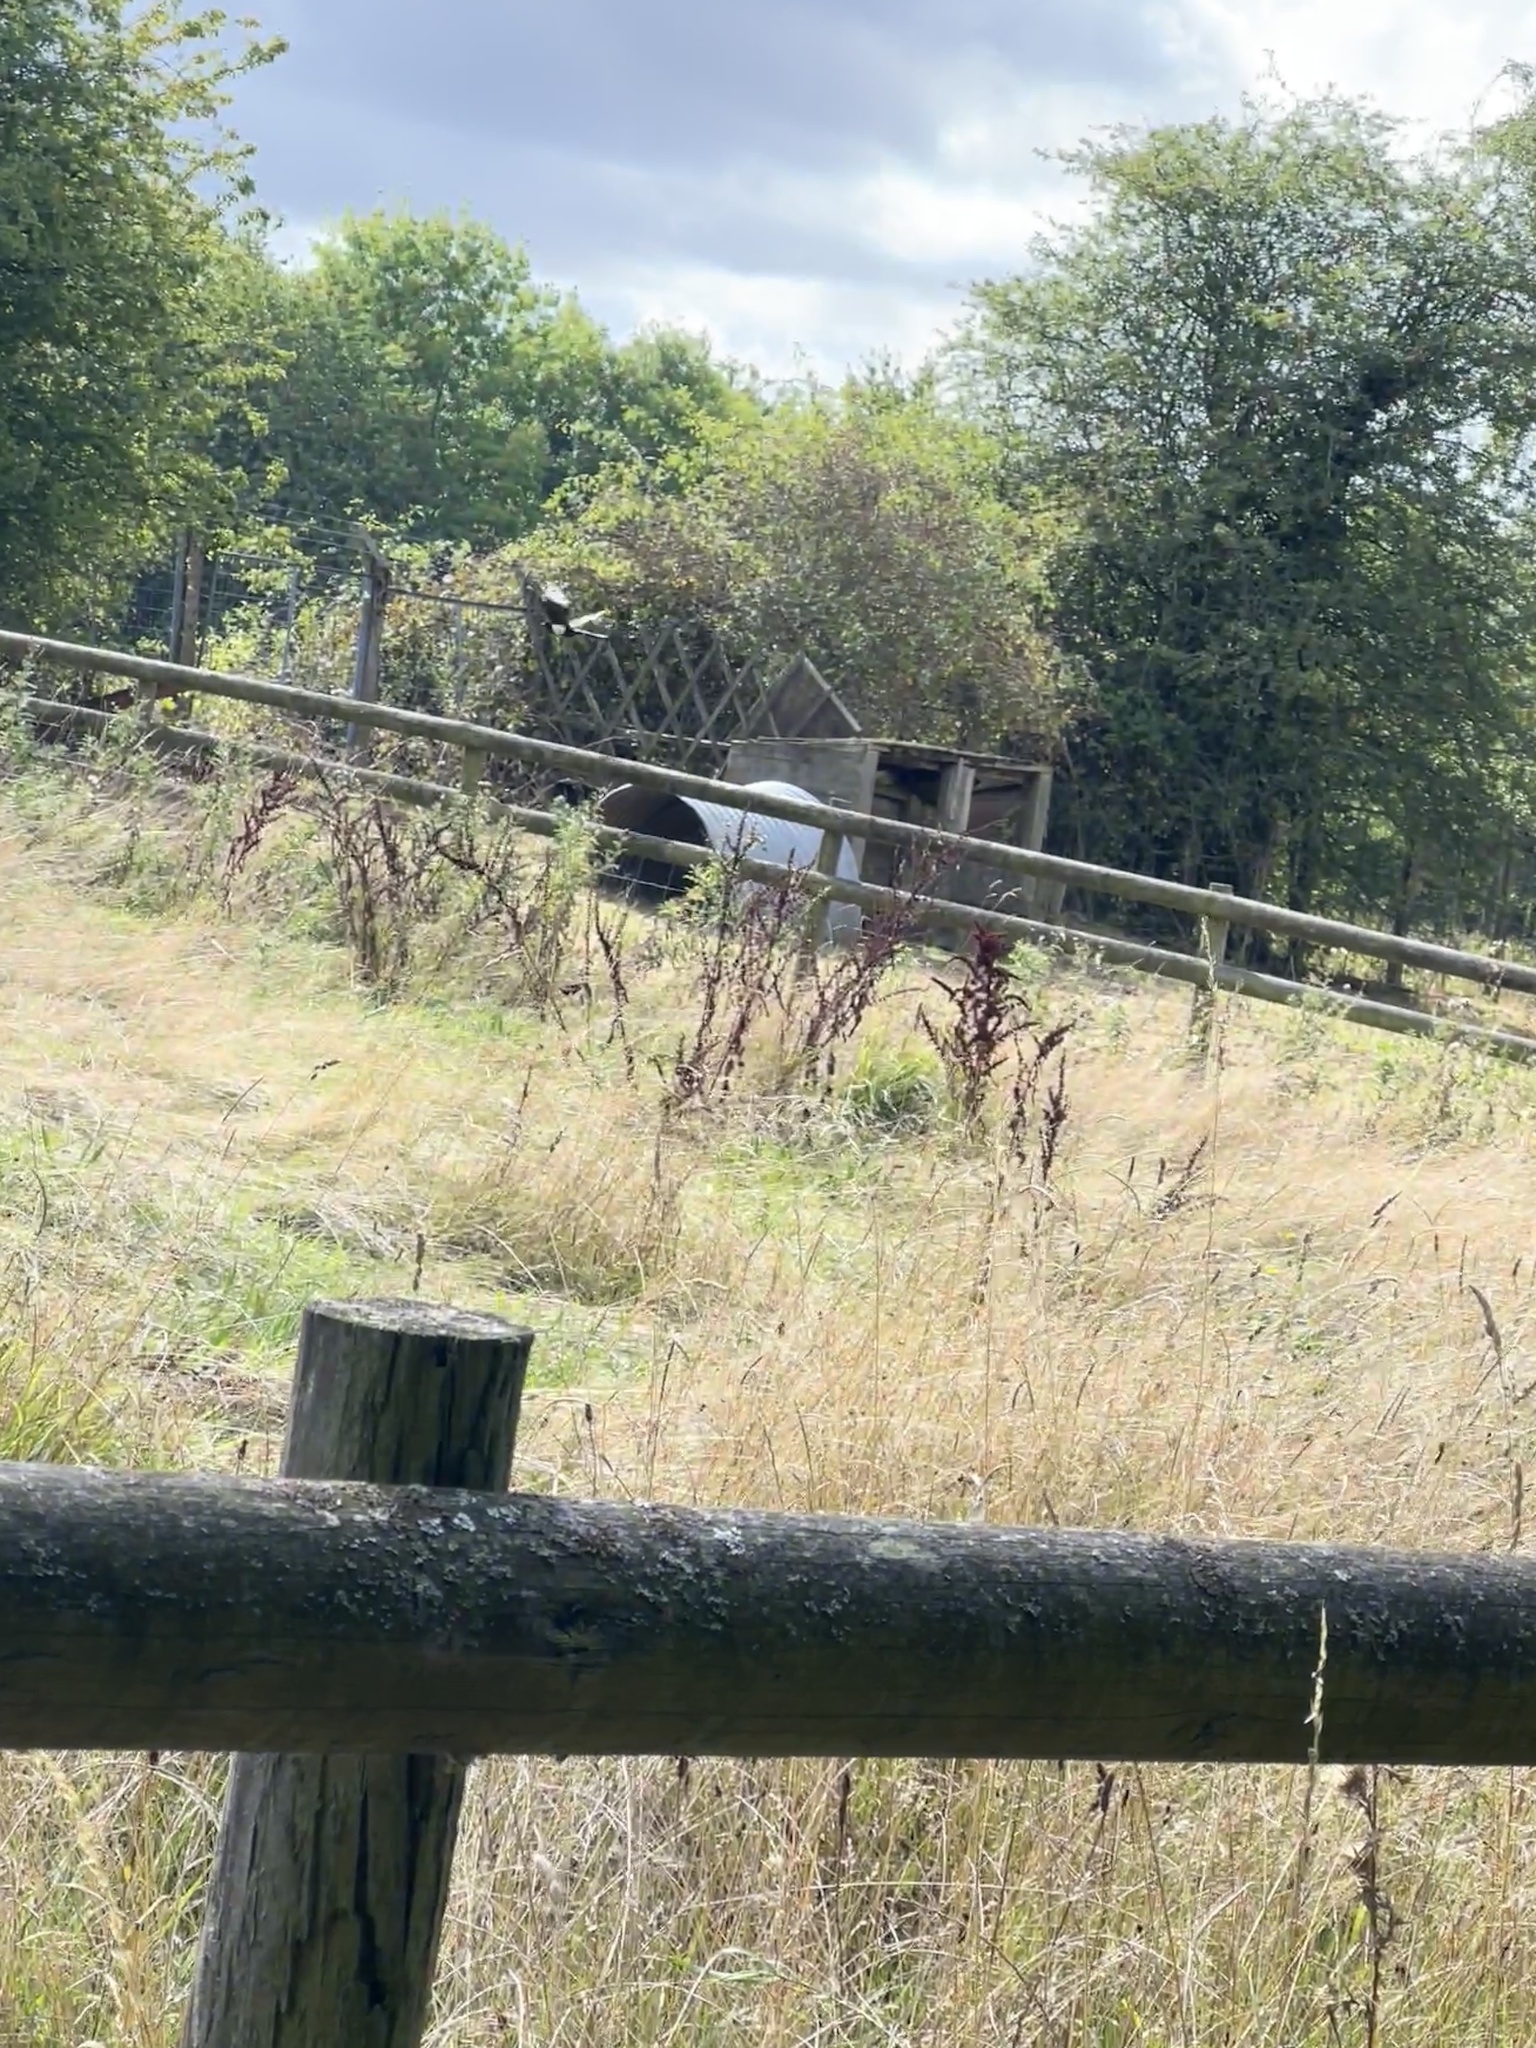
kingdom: Animalia
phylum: Chordata
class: Aves
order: Passeriformes
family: Corvidae
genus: Pica
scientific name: Pica pica
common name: Eurasian magpie
